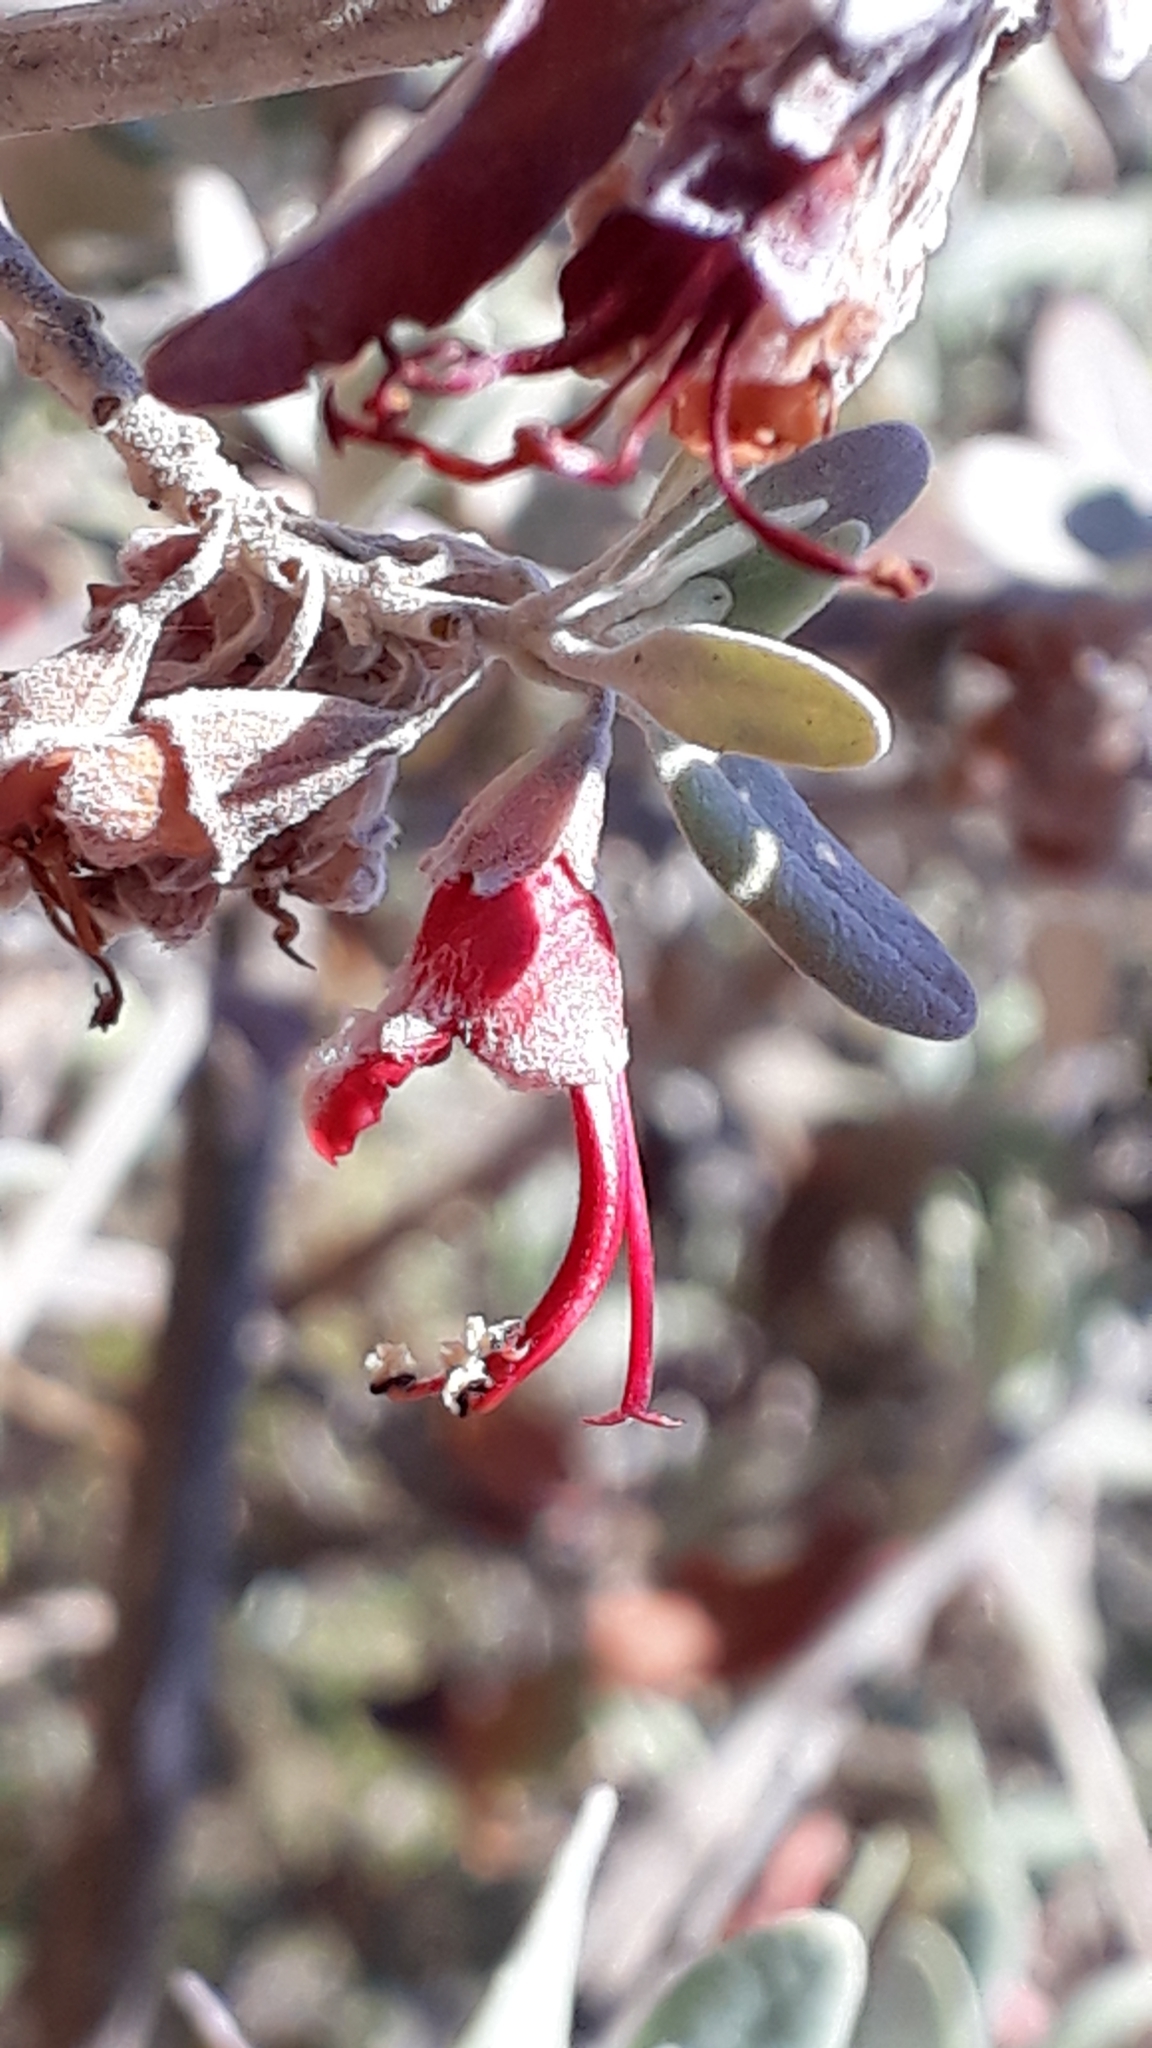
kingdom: Plantae
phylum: Tracheophyta
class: Magnoliopsida
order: Lamiales
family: Lamiaceae
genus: Teucrium
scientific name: Teucrium heterophyllum
